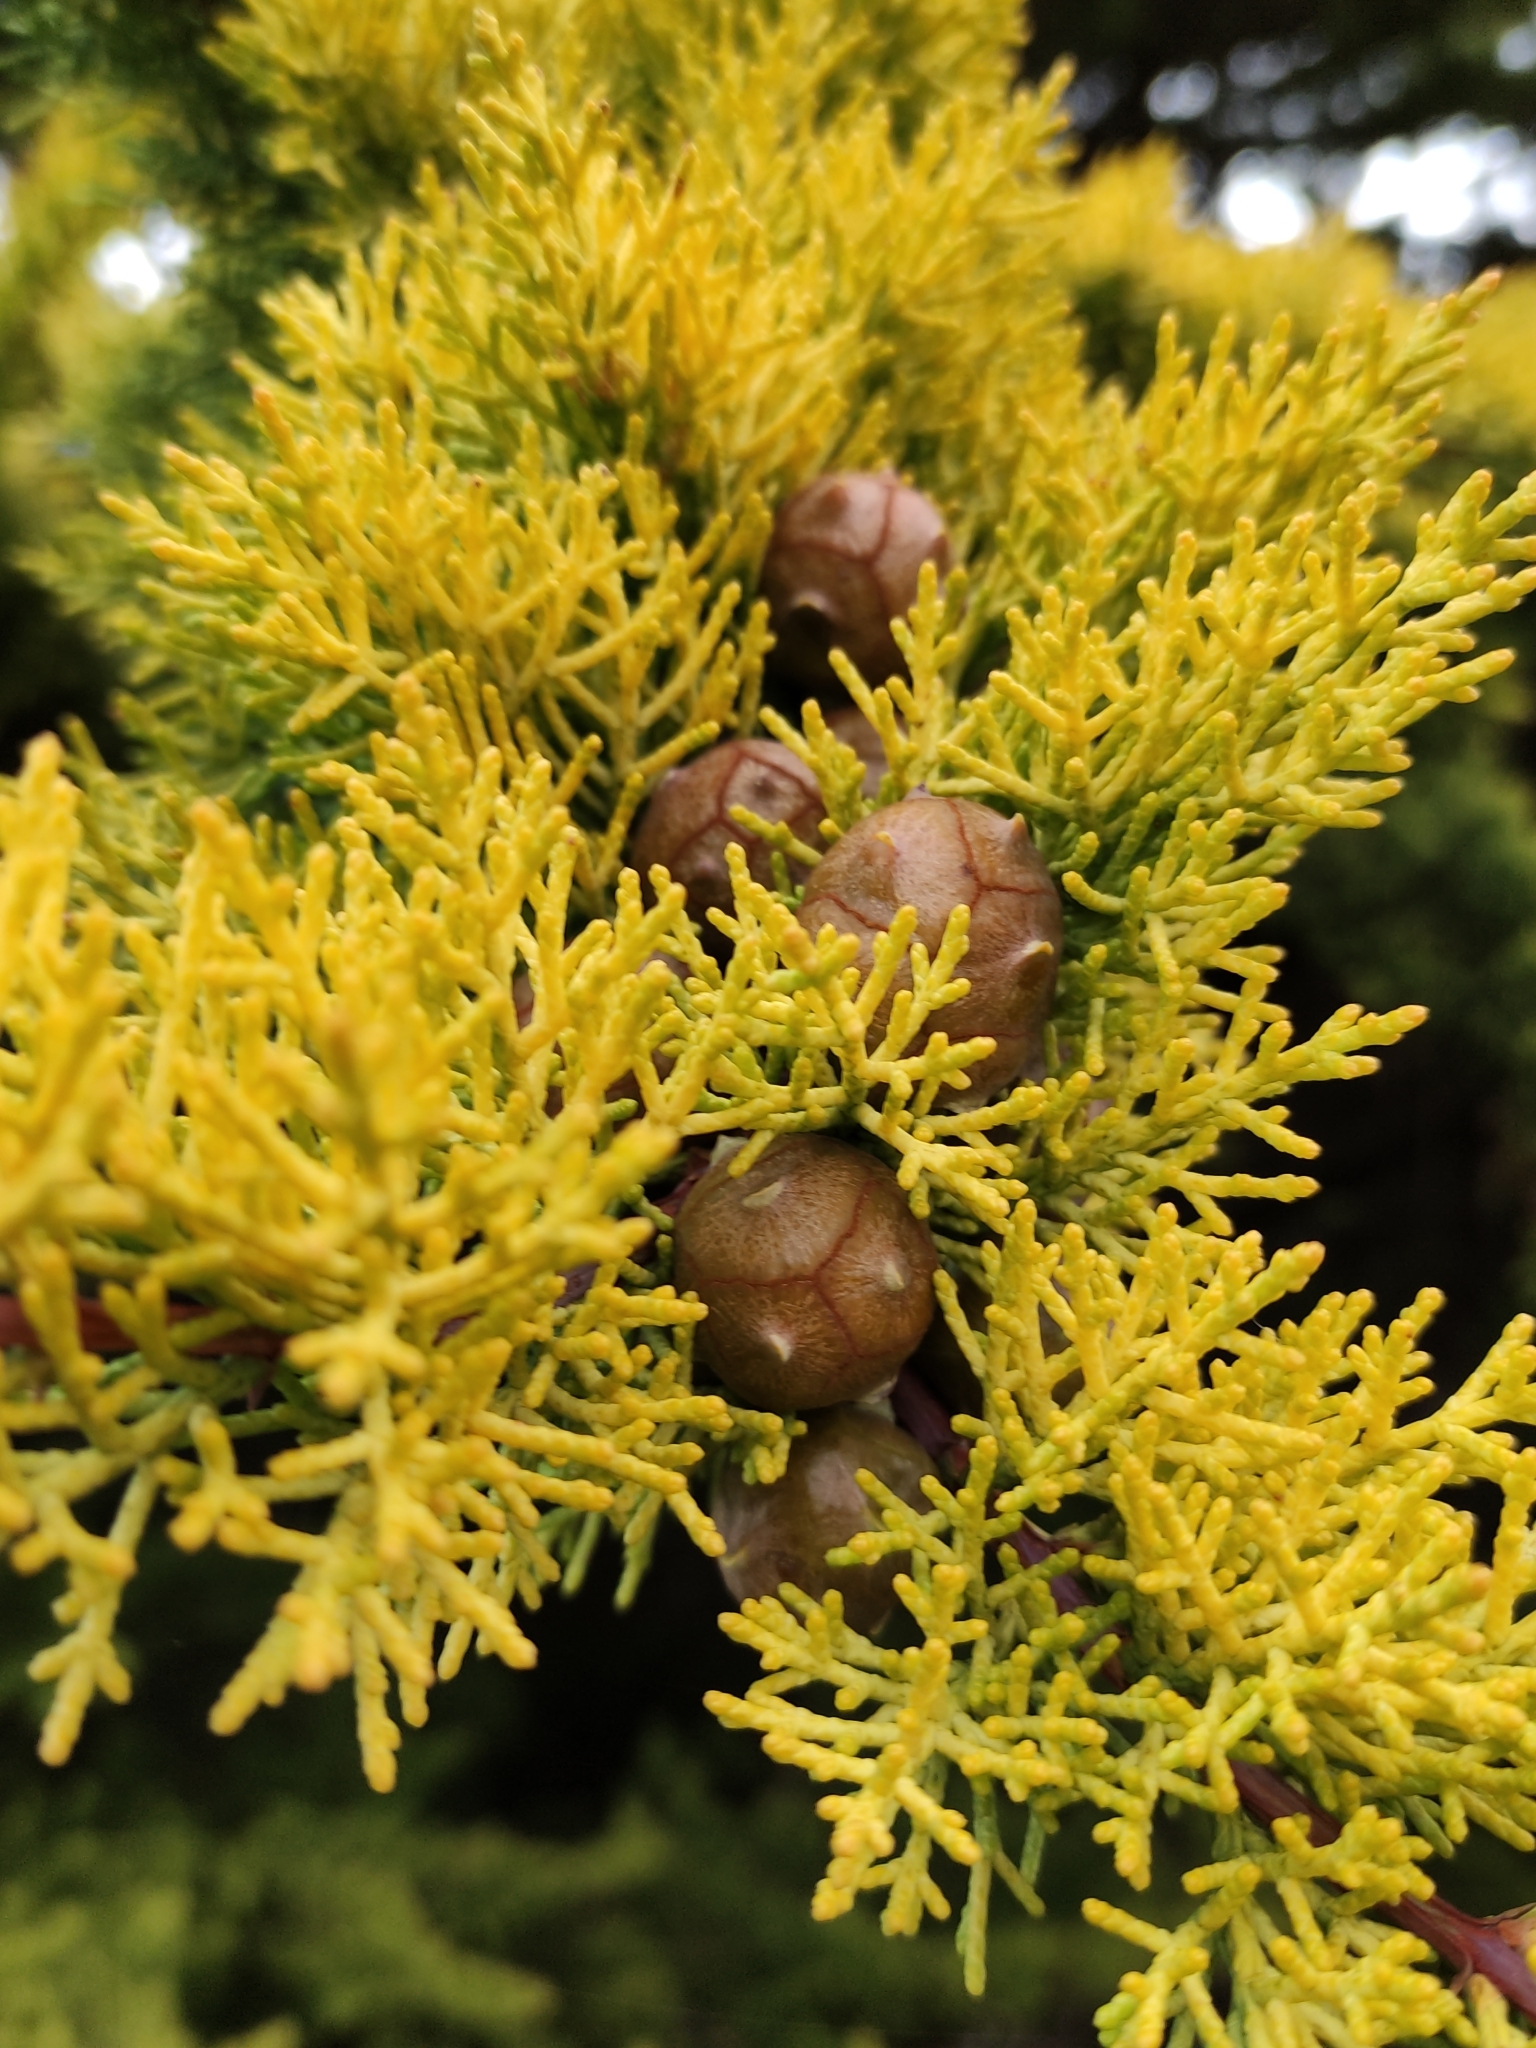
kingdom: Plantae
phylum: Tracheophyta
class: Pinopsida
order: Pinales
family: Cupressaceae
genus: Cupressus
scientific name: Cupressus macrocarpa
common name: Monterey cypress
